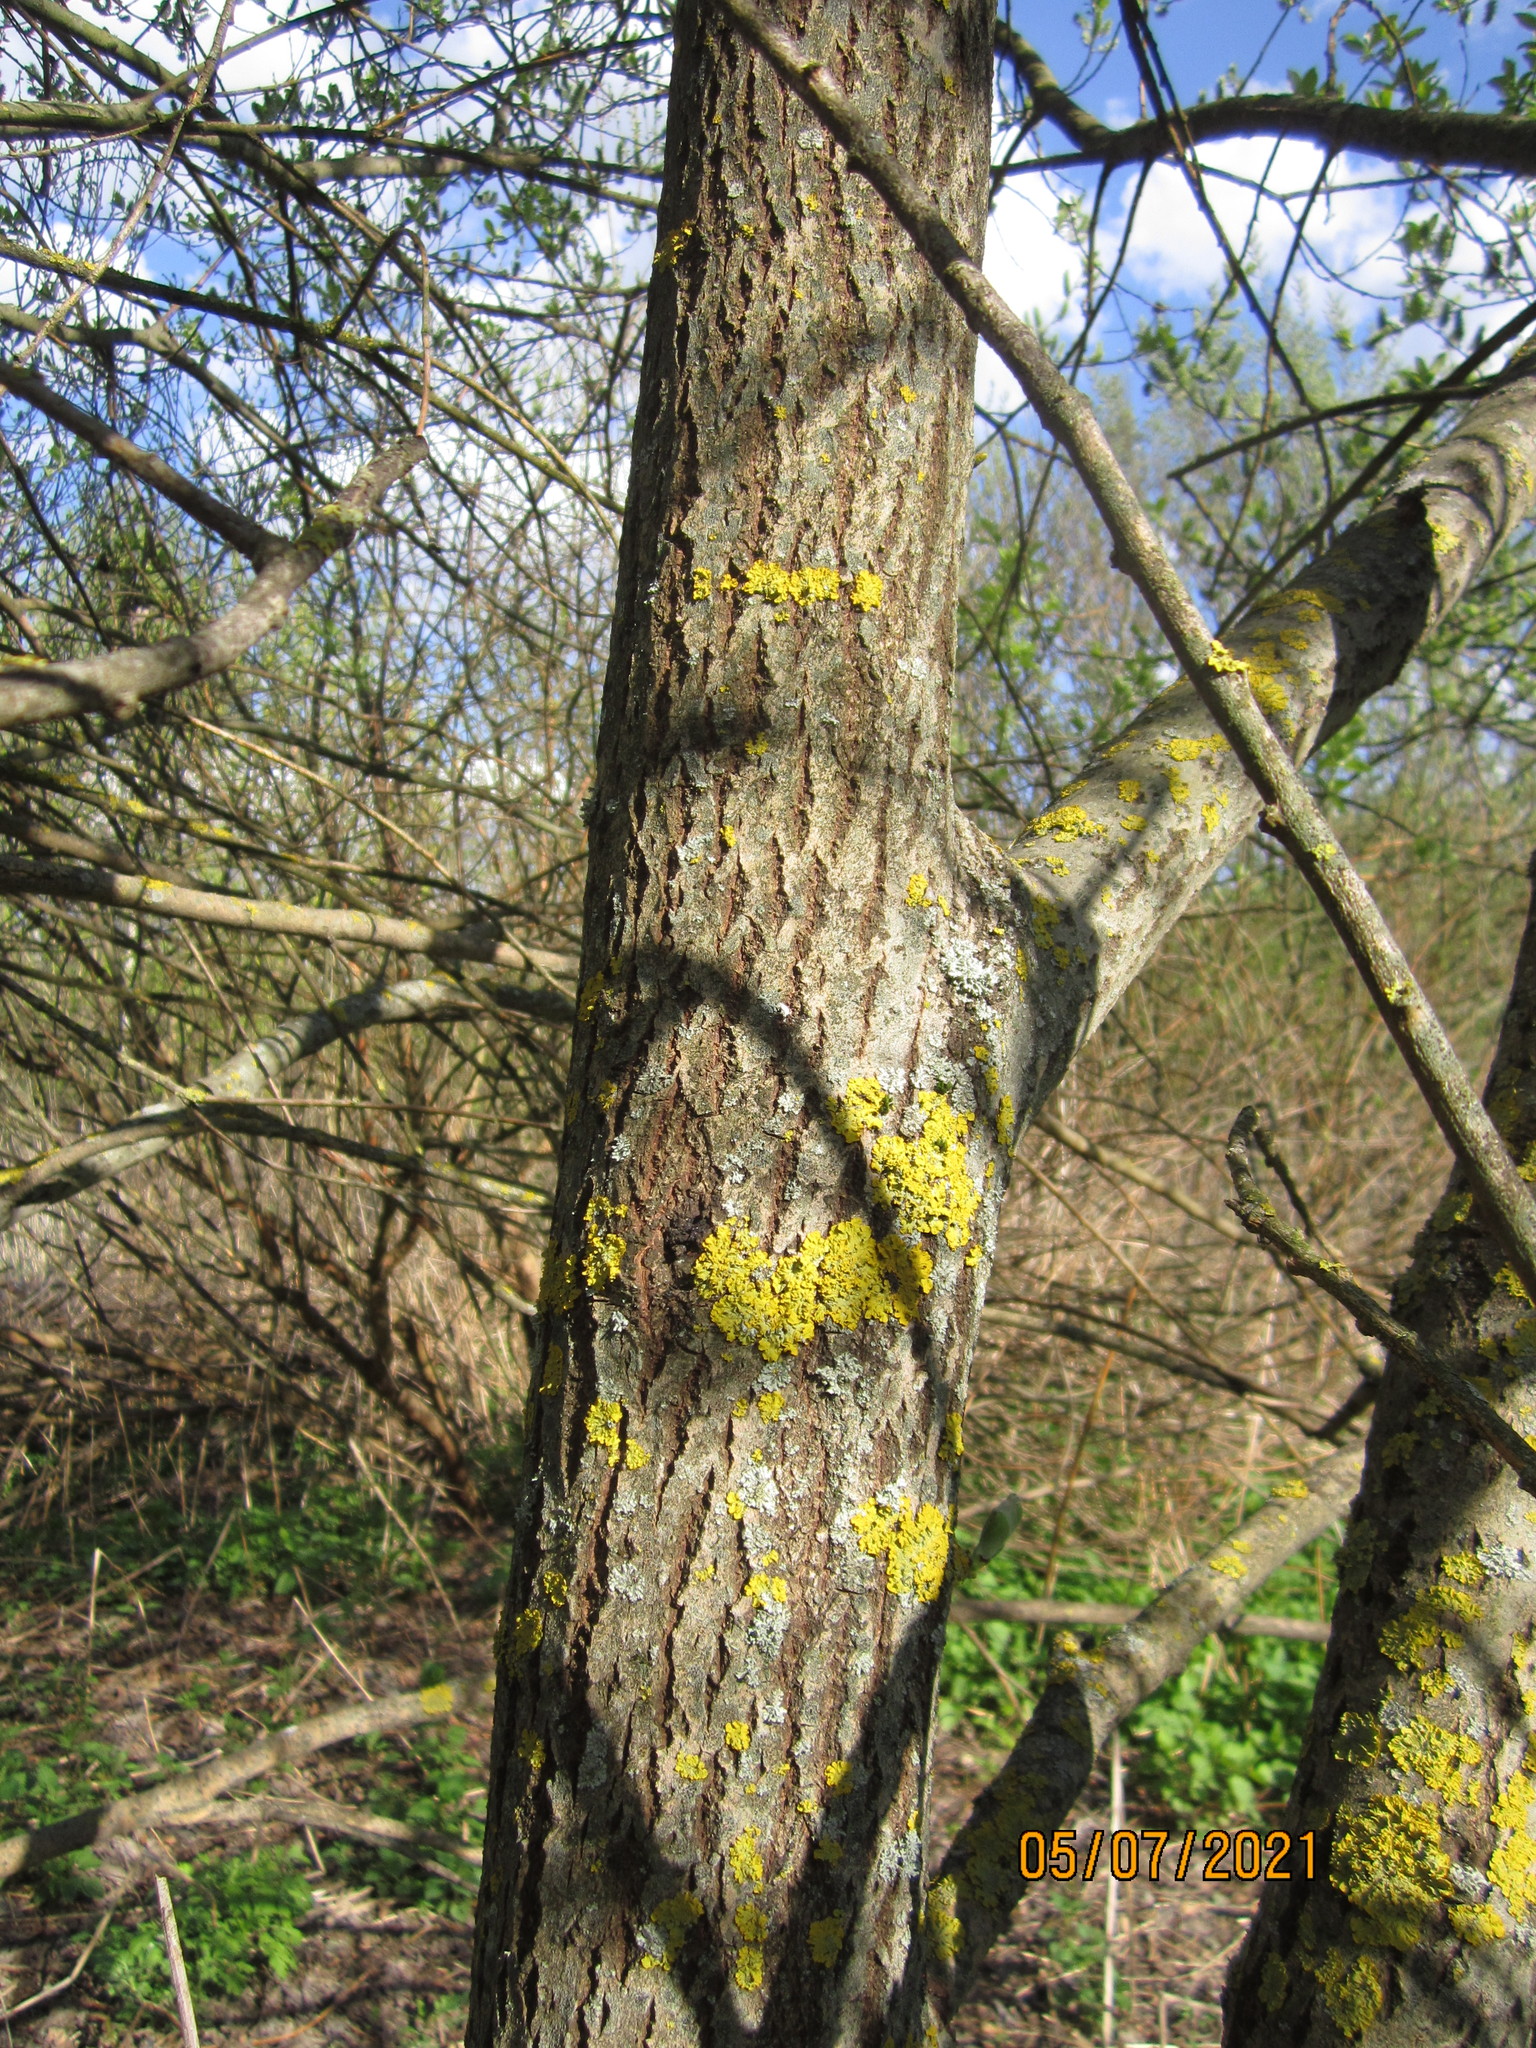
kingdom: Fungi
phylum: Ascomycota
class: Lecanoromycetes
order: Teloschistales
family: Teloschistaceae
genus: Xanthoria
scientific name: Xanthoria parietina
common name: Common orange lichen
